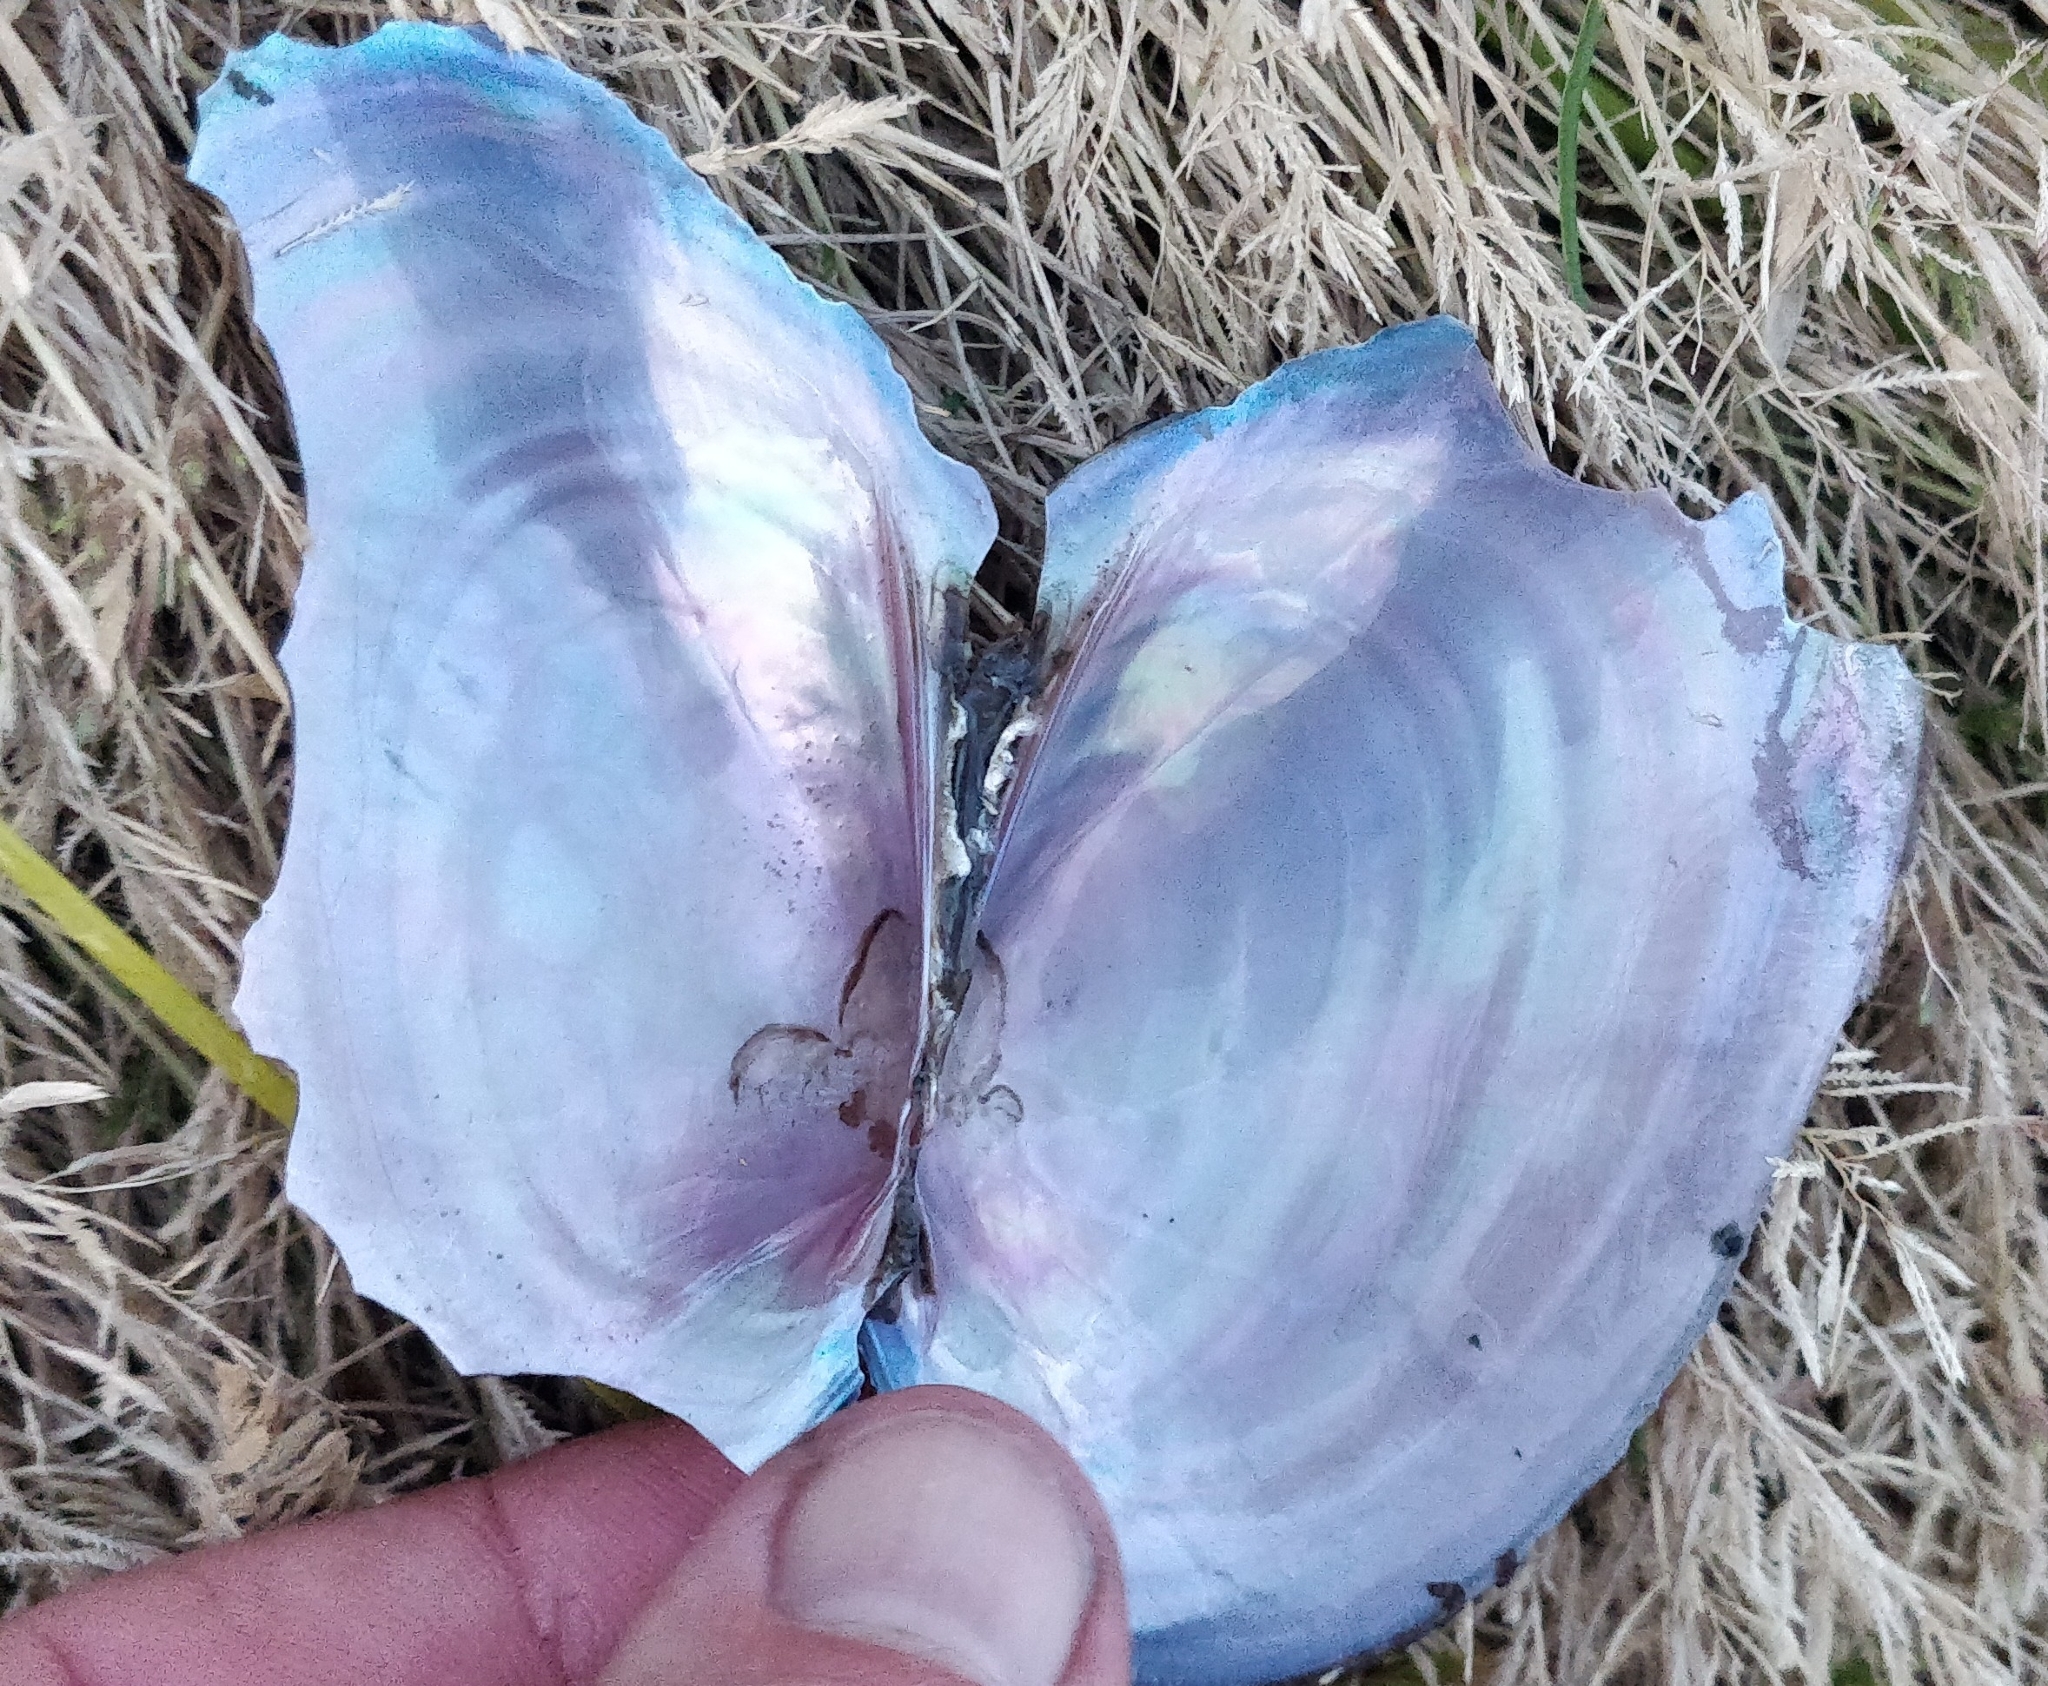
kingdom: Animalia
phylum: Mollusca
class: Bivalvia
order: Unionida
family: Unionidae
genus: Potamilus
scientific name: Potamilus ohiensis
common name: Pink papershell
